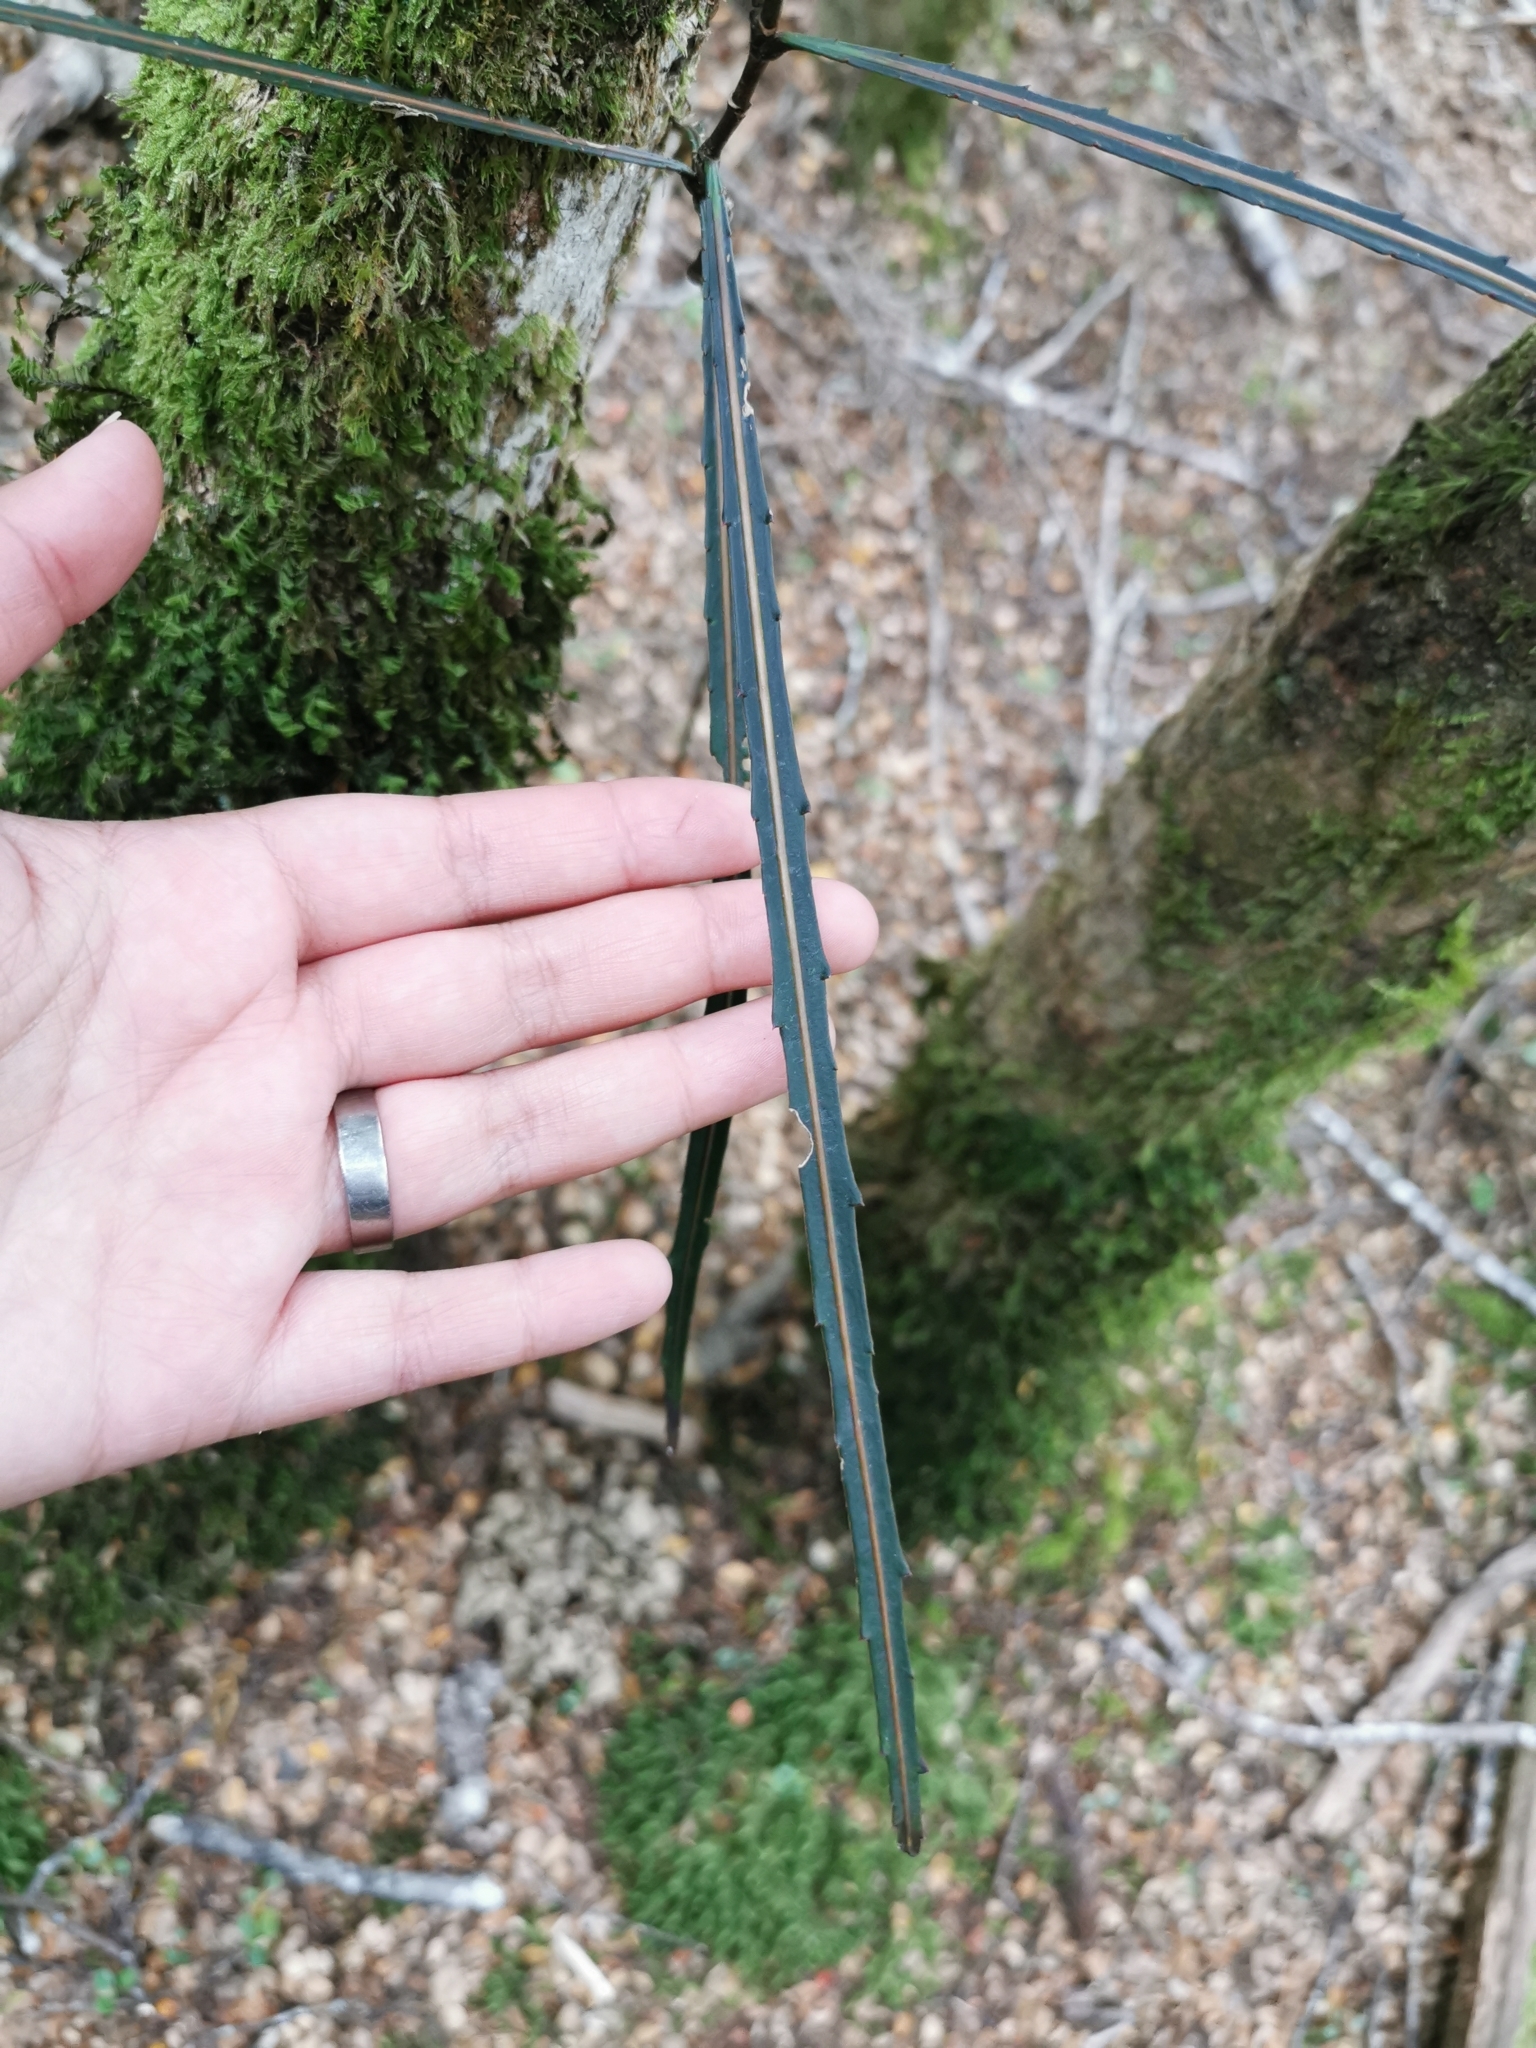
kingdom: Plantae
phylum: Tracheophyta
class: Magnoliopsida
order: Apiales
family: Araliaceae
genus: Pseudopanax
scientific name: Pseudopanax crassifolius
